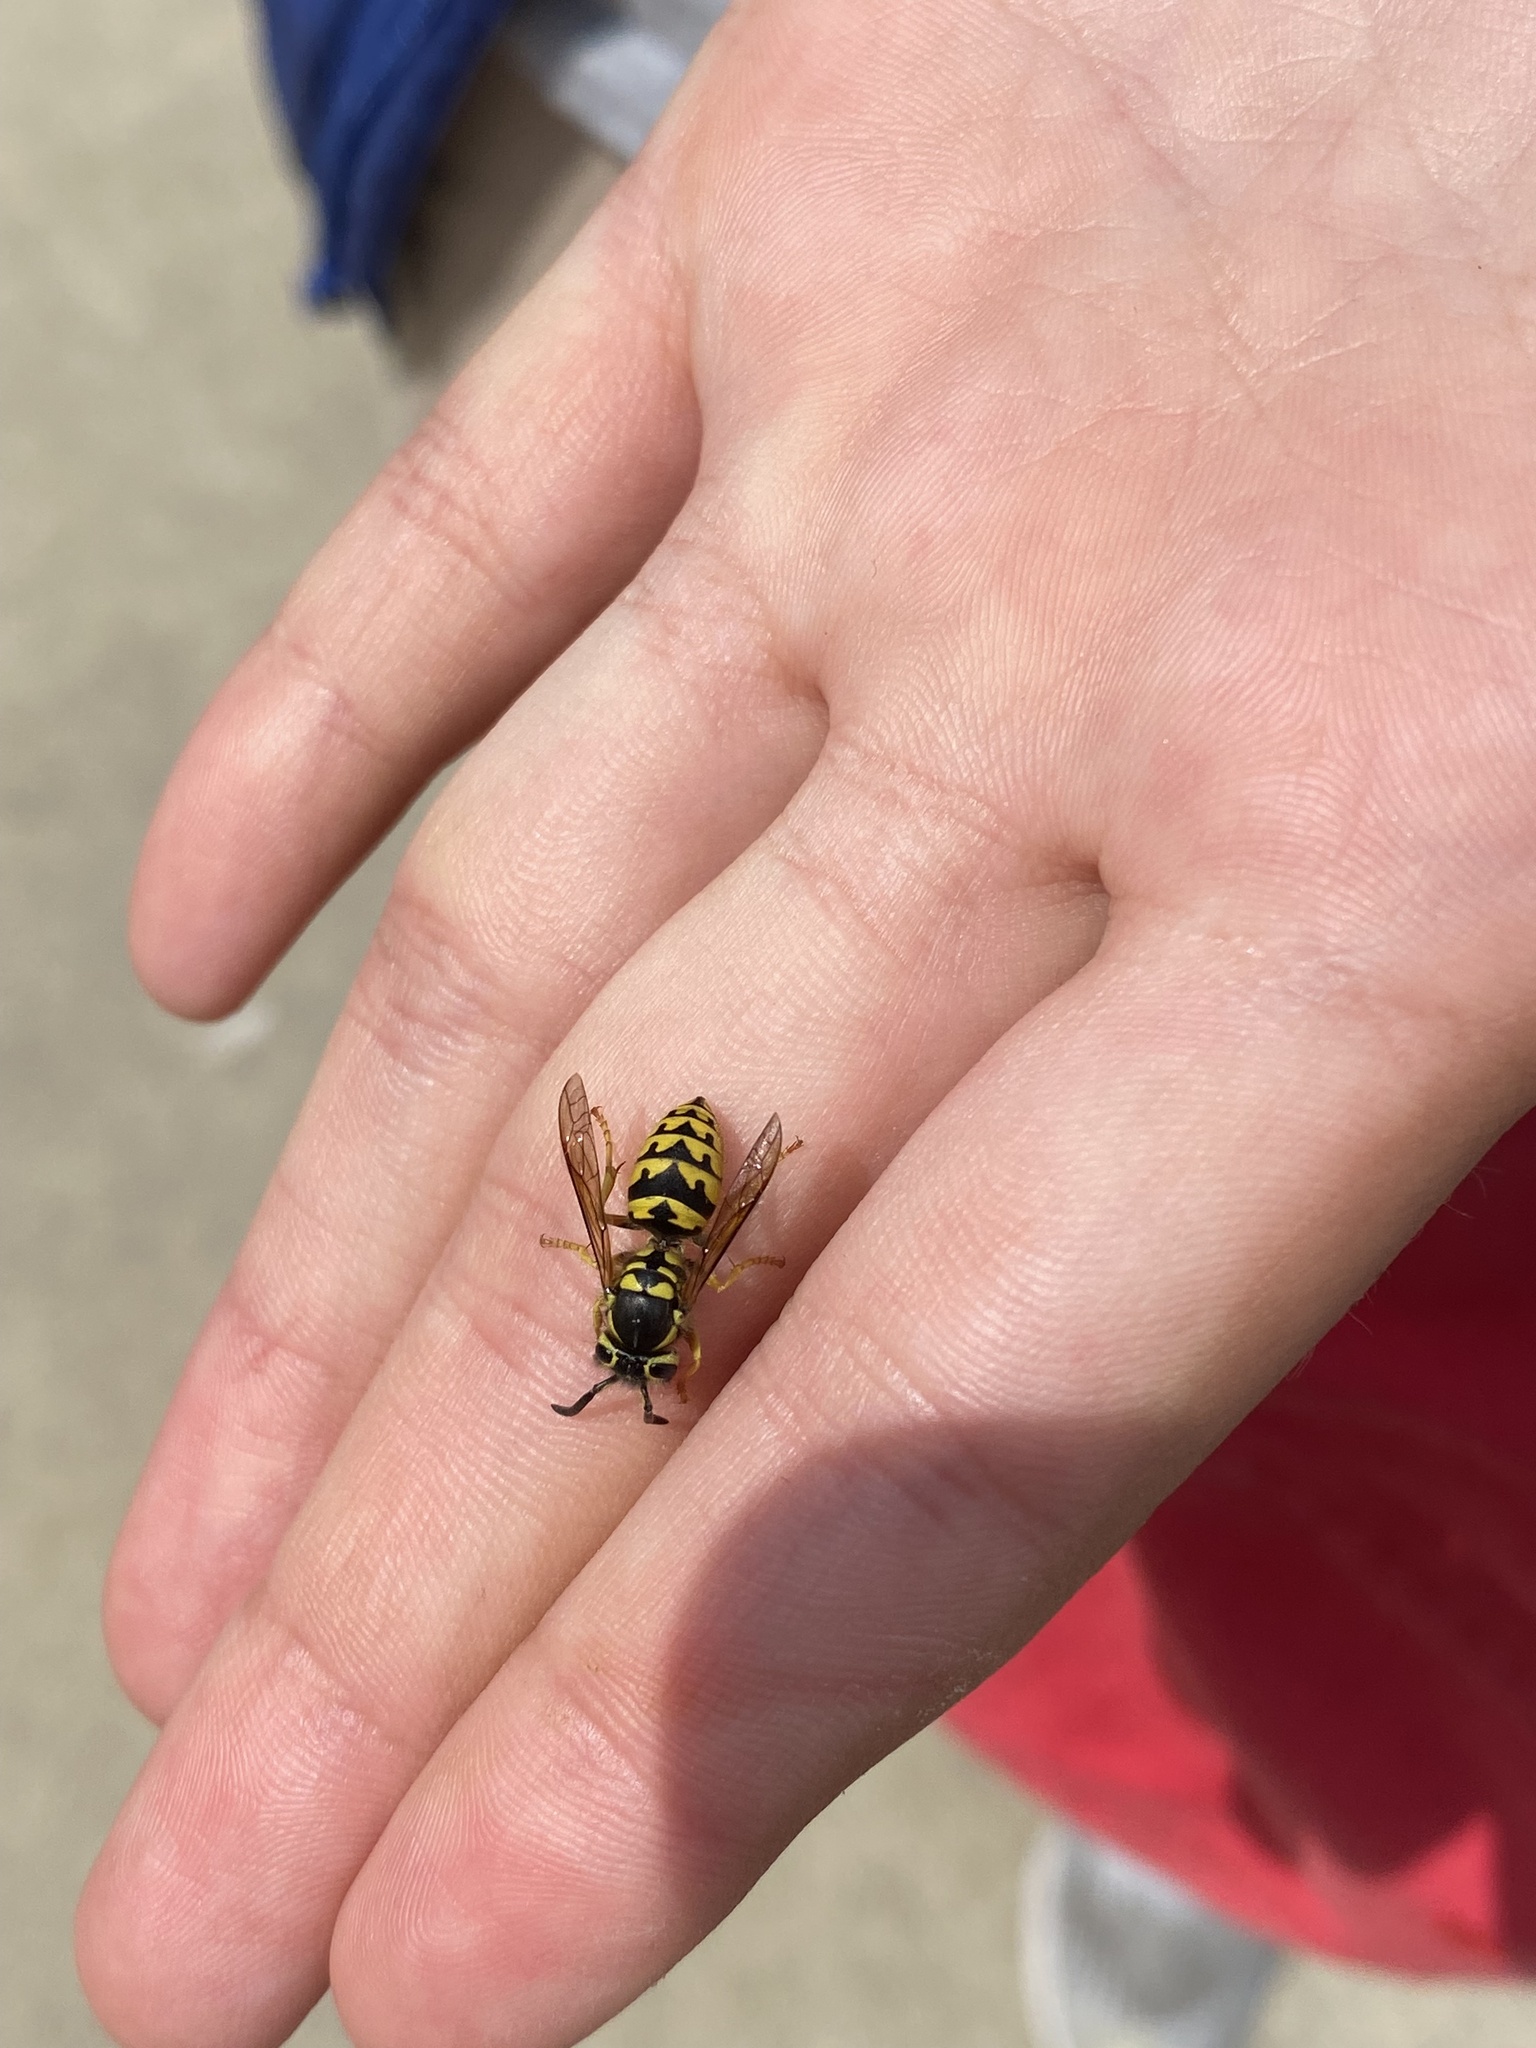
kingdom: Animalia
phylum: Arthropoda
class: Insecta
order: Hymenoptera
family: Vespidae
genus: Vespula
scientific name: Vespula pensylvanica
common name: Western yellowjacket
